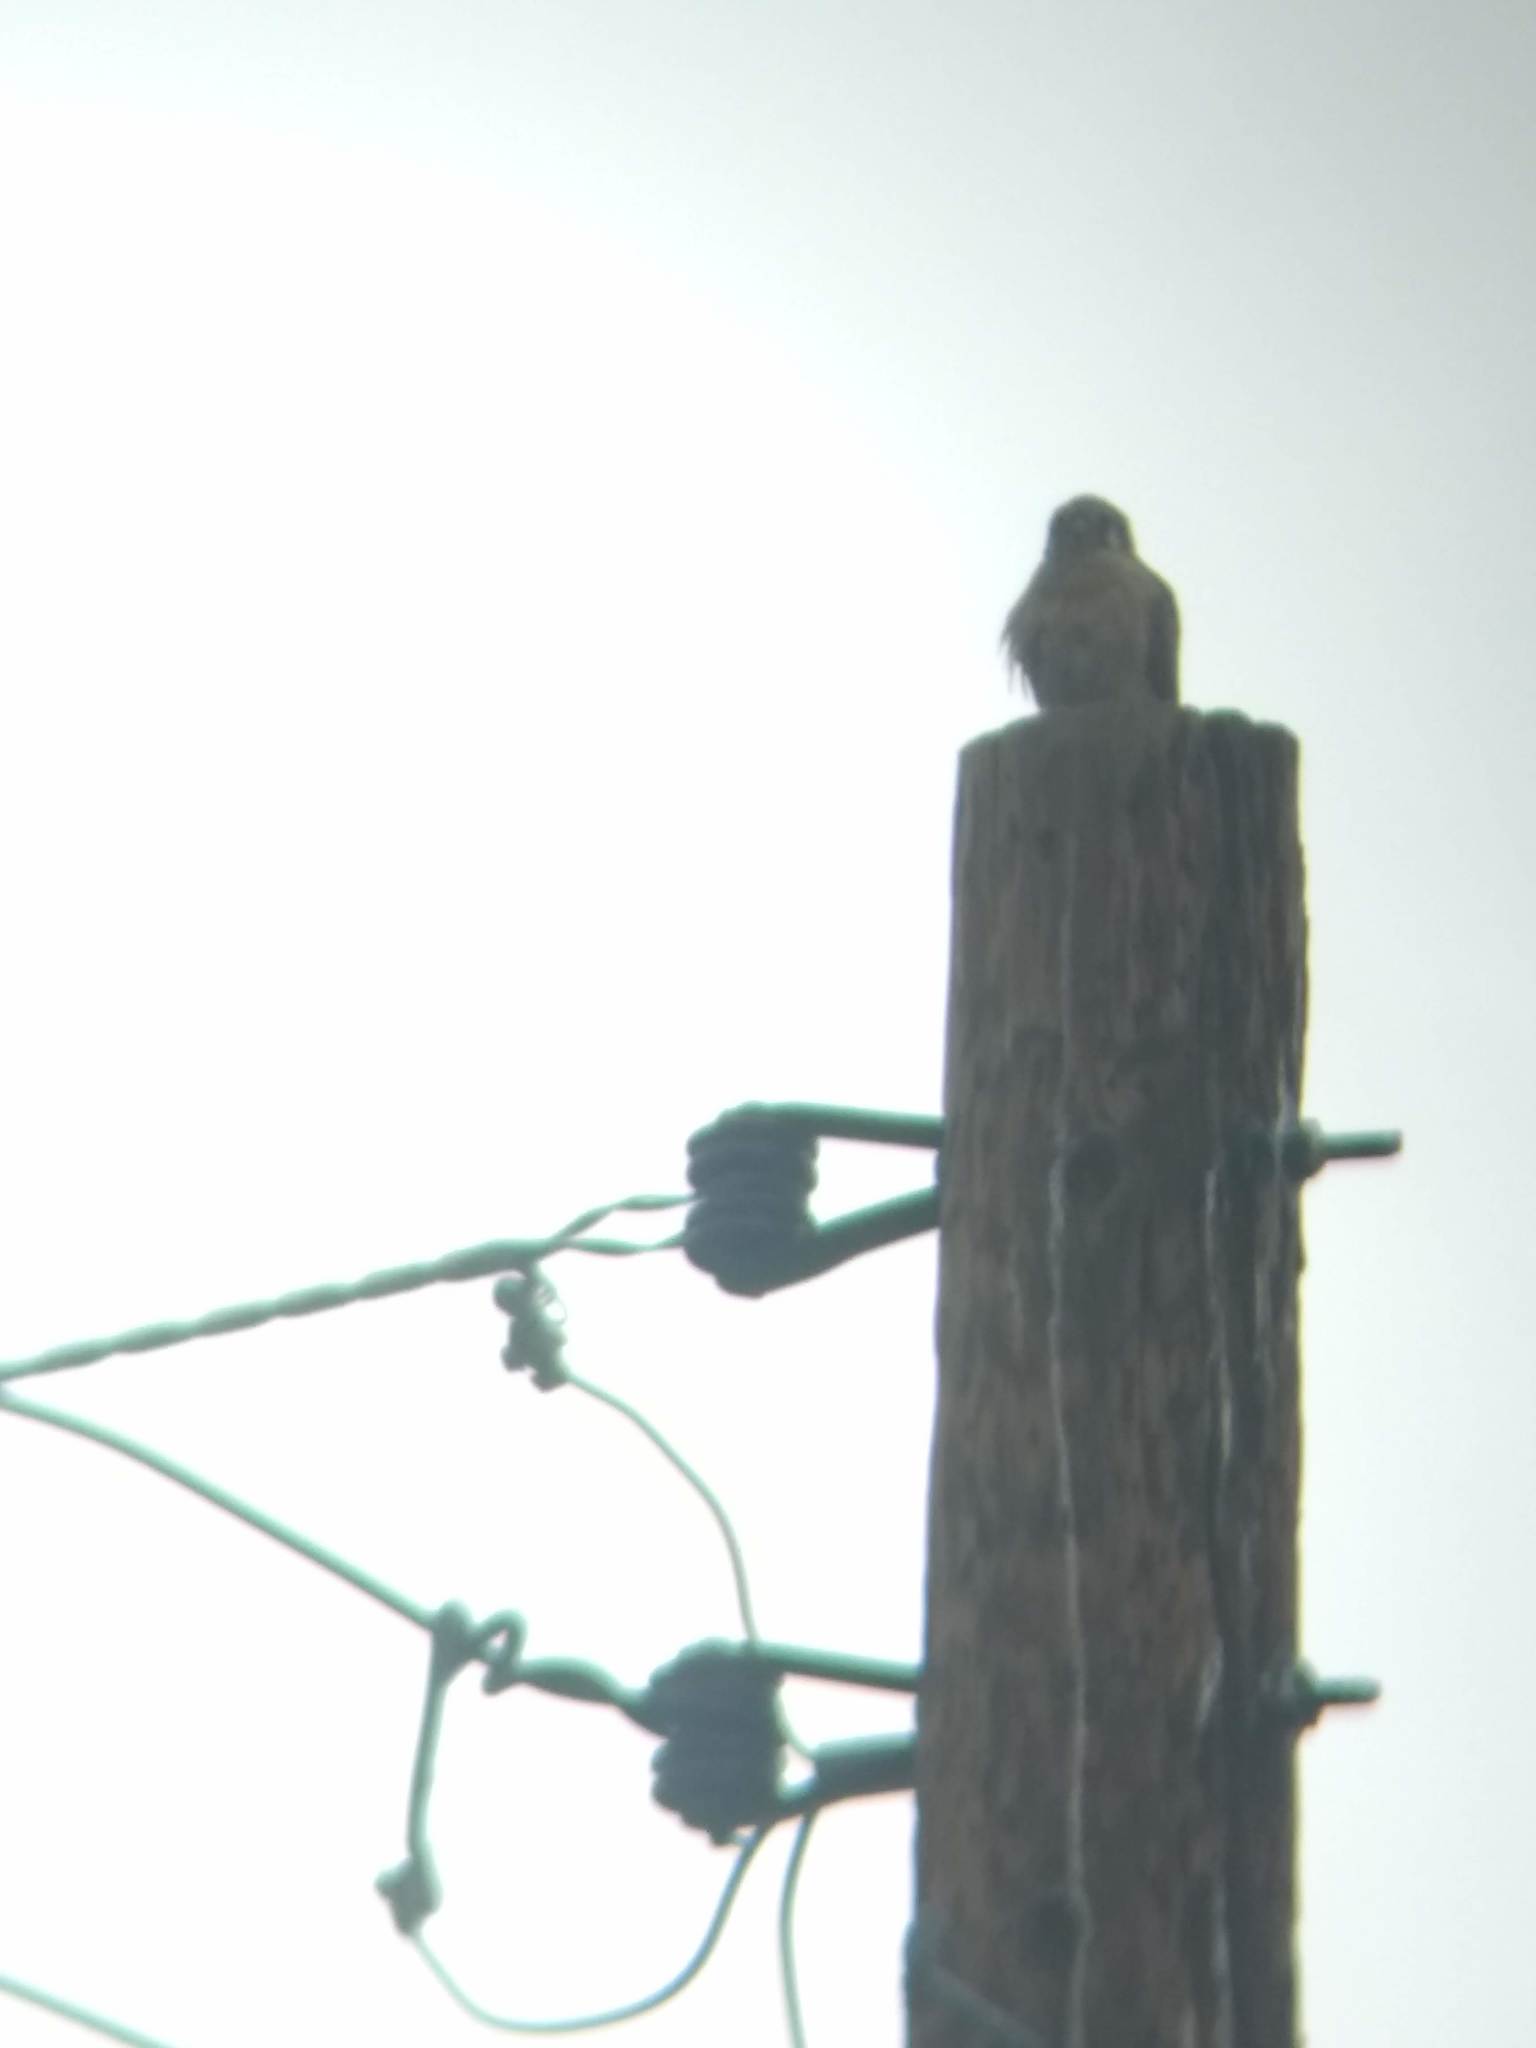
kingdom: Animalia
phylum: Chordata
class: Aves
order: Falconiformes
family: Falconidae
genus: Falco
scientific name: Falco sparverius
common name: American kestrel
